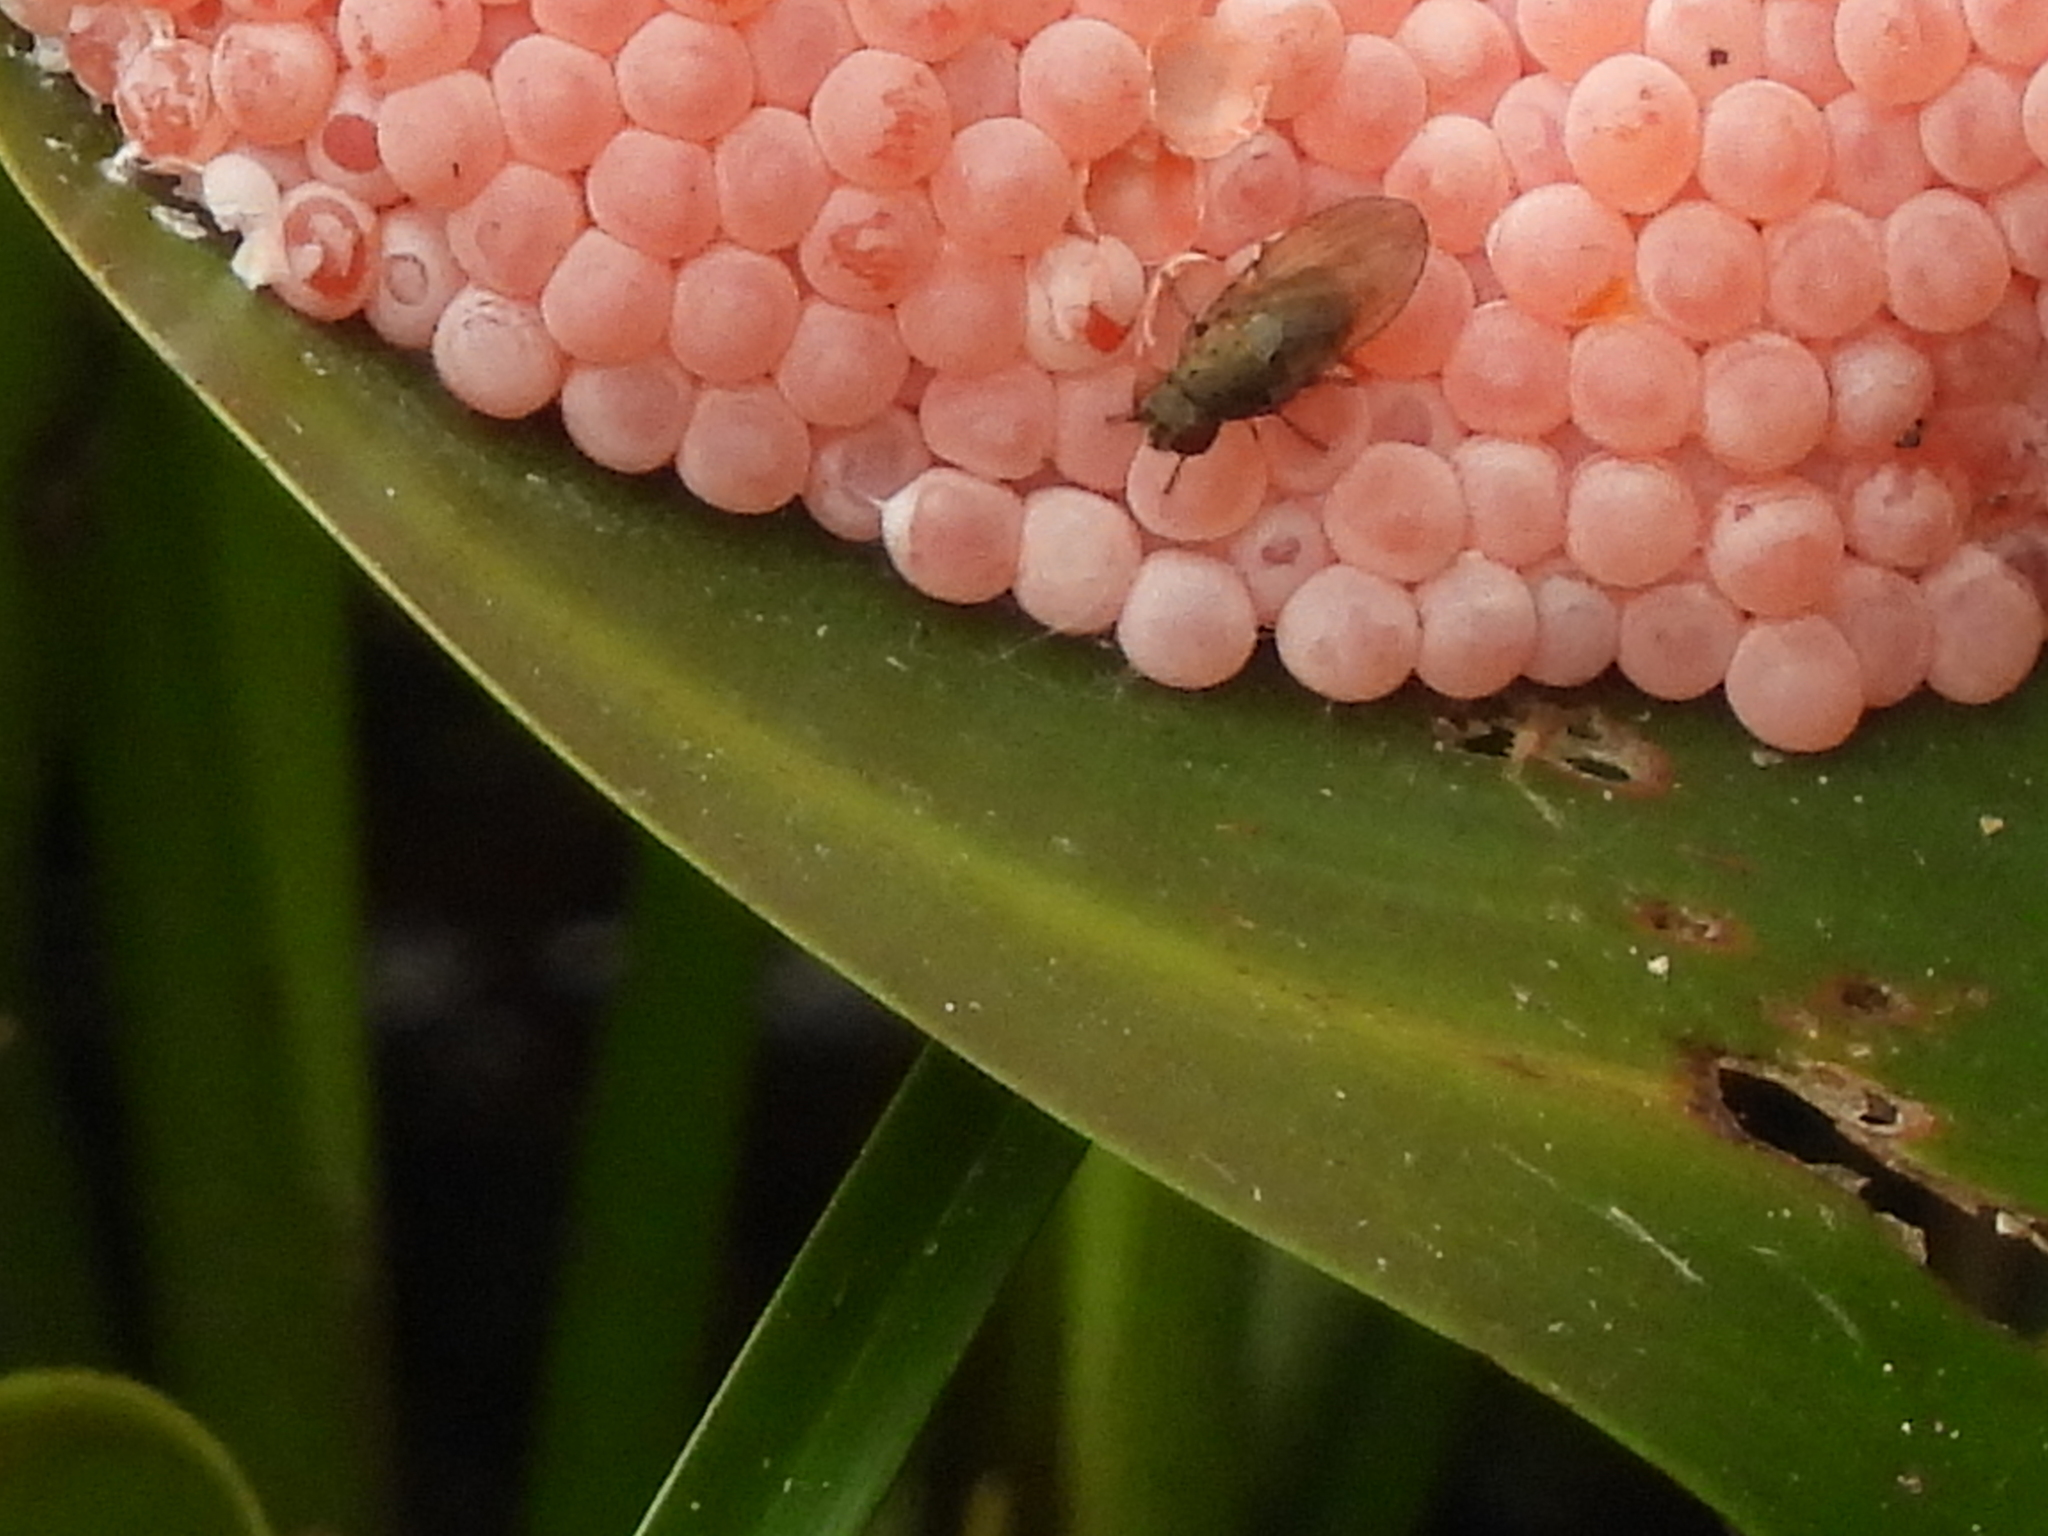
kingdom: Animalia
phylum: Mollusca
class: Gastropoda
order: Architaenioglossa
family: Ampullariidae
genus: Pomacea
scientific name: Pomacea maculata
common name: Giant applesnail
